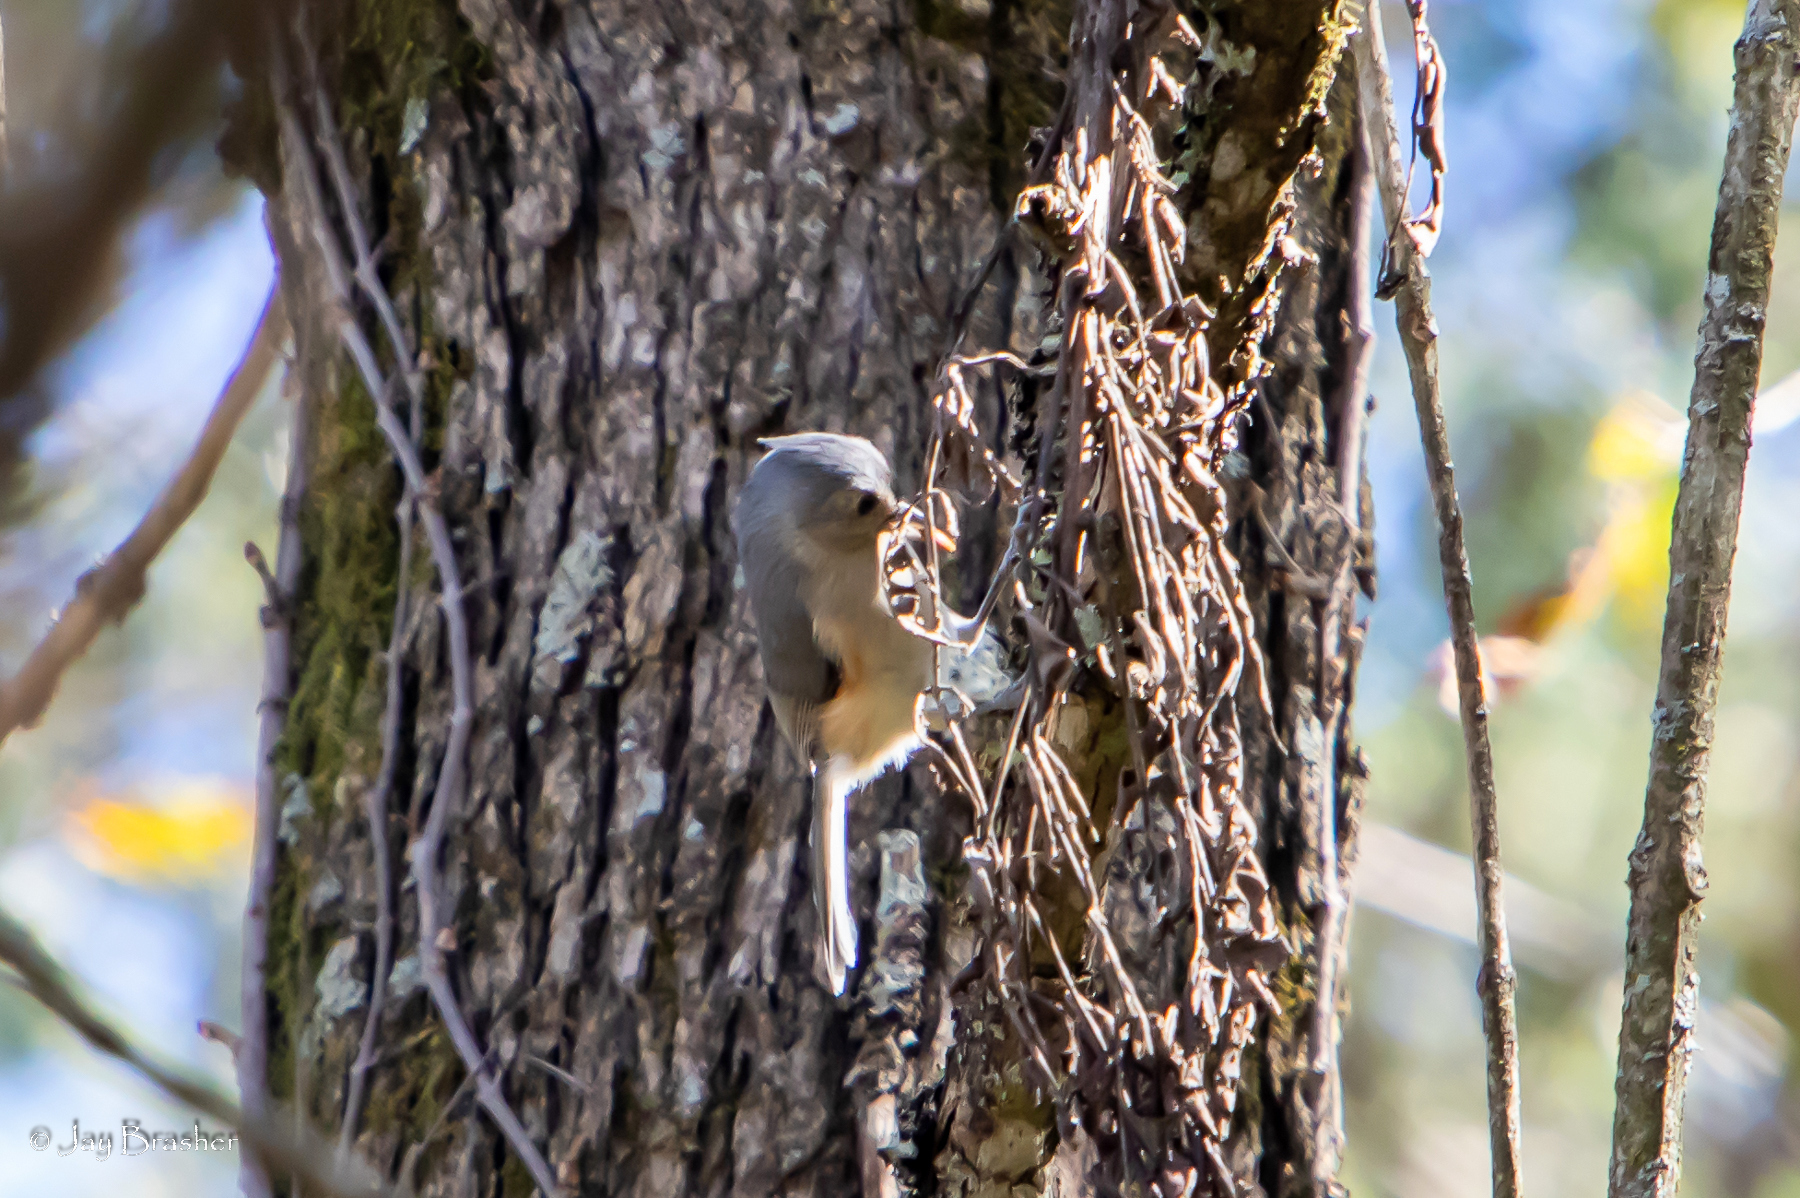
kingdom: Animalia
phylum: Chordata
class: Aves
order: Passeriformes
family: Paridae
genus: Baeolophus
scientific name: Baeolophus bicolor
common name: Tufted titmouse
